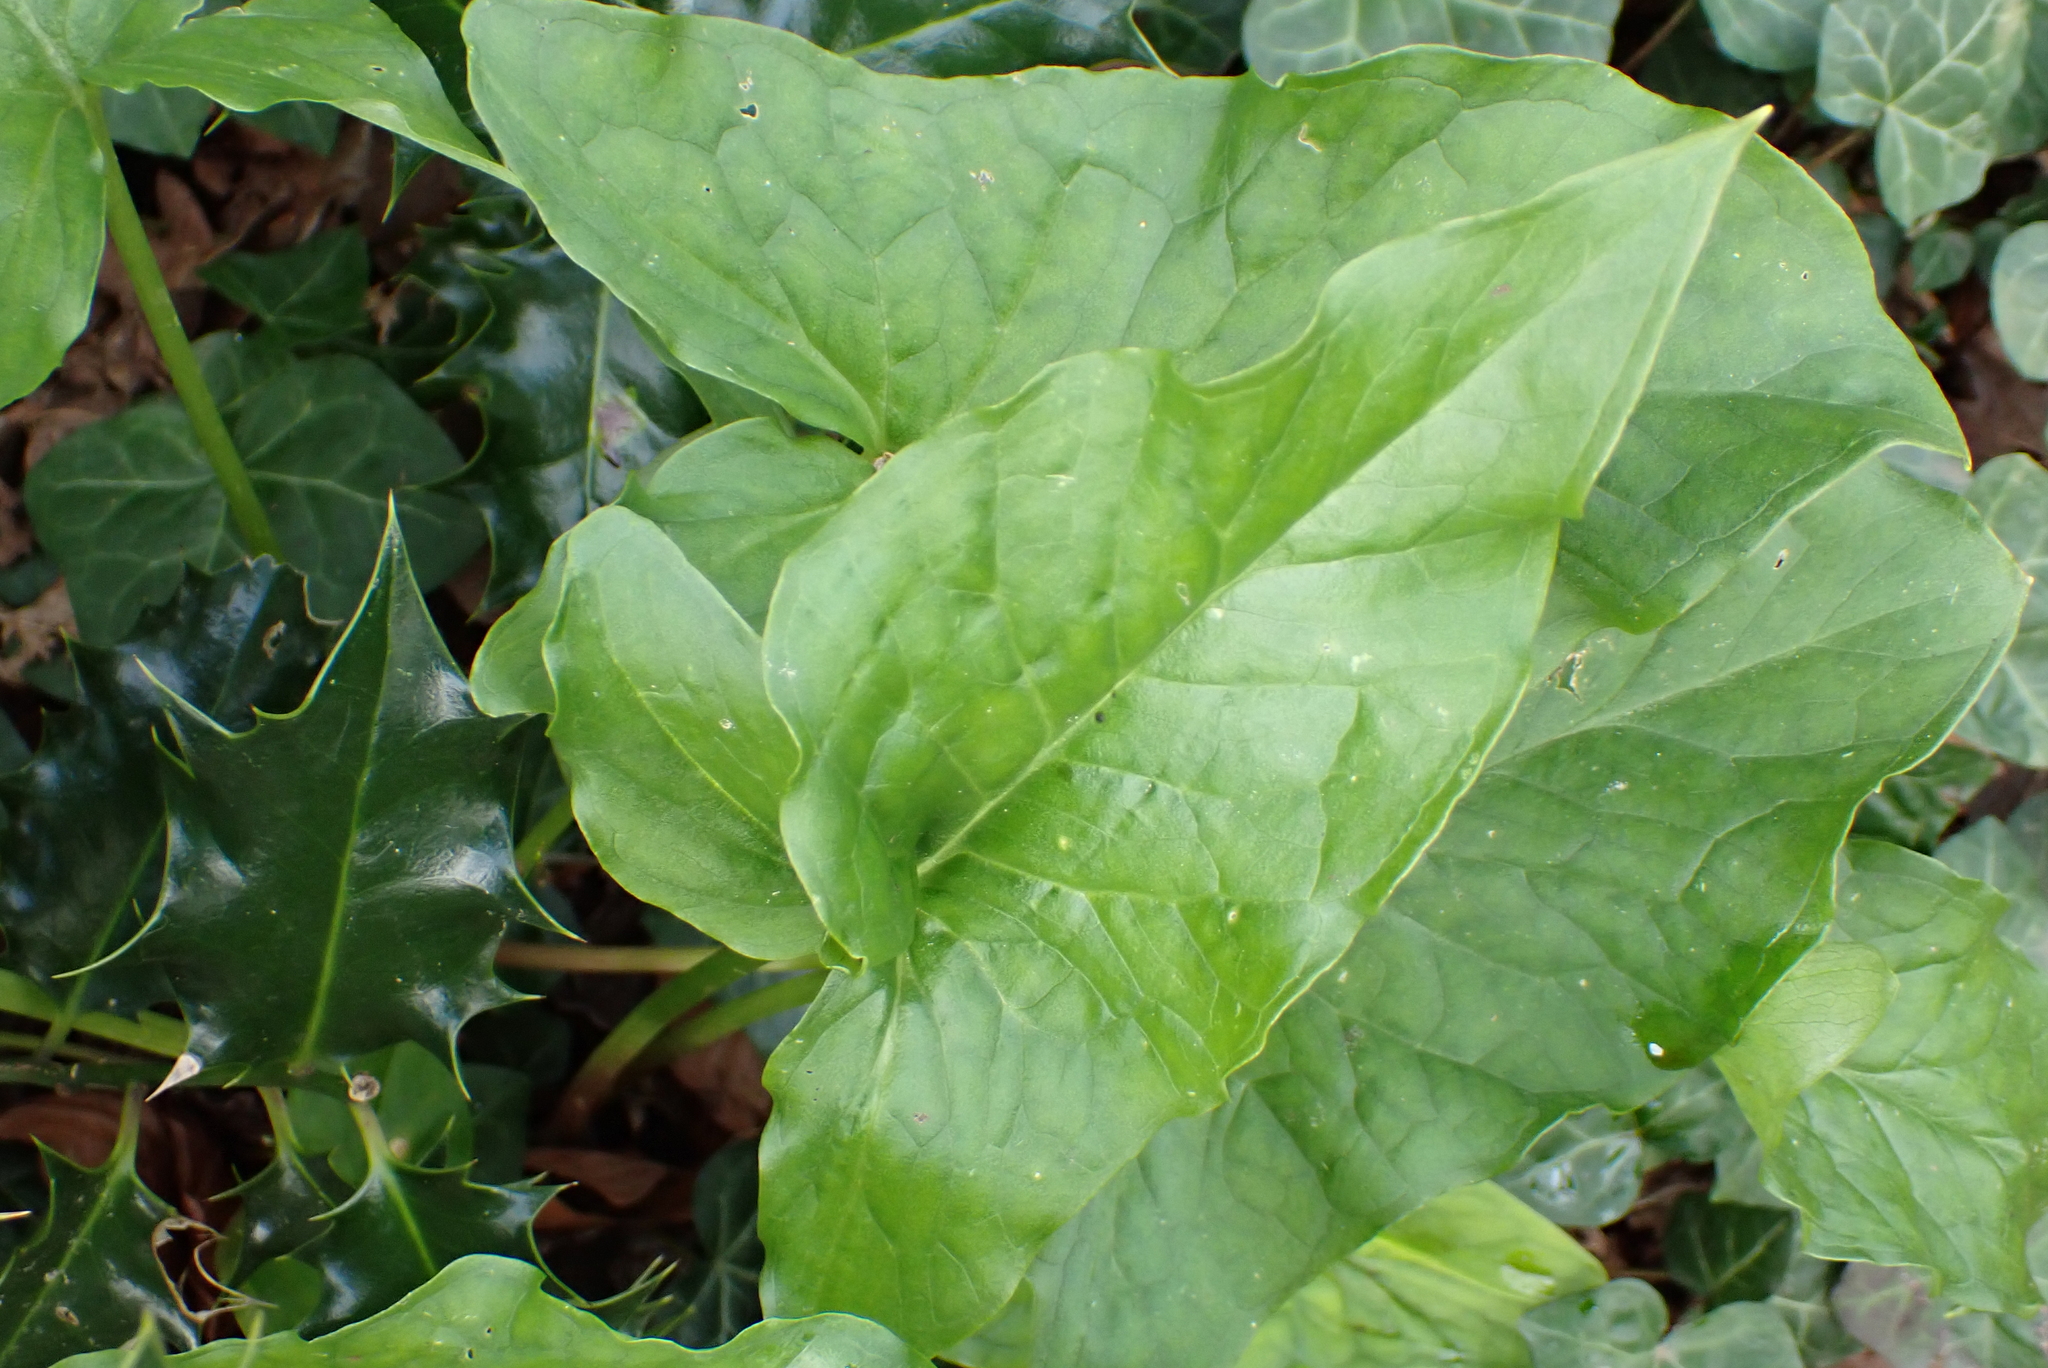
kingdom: Plantae
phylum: Tracheophyta
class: Liliopsida
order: Alismatales
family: Araceae
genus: Arum
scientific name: Arum maculatum
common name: Lords-and-ladies
